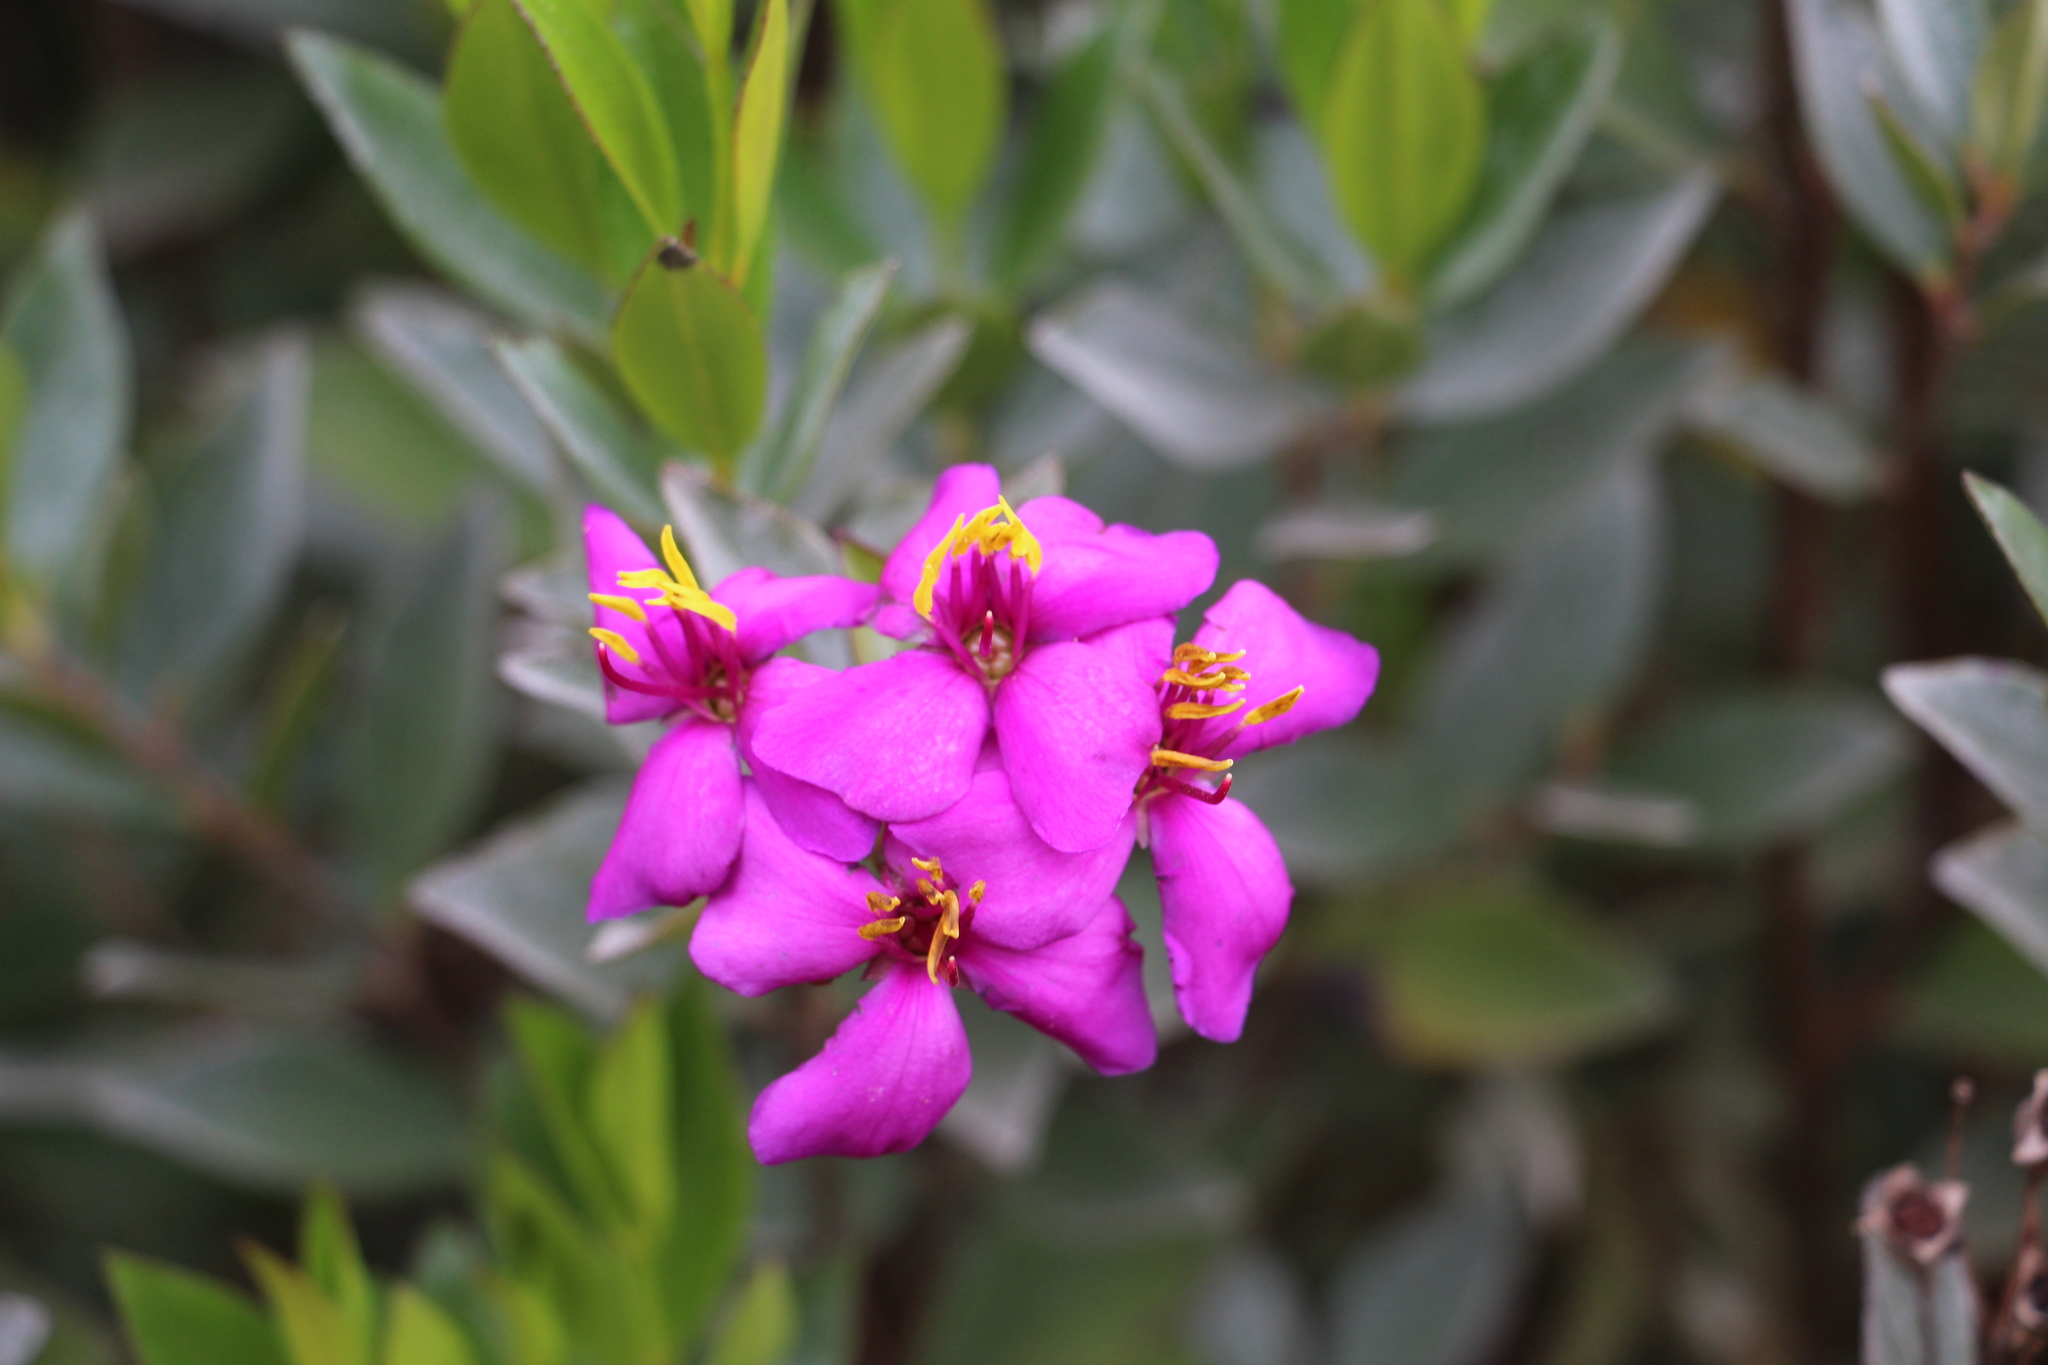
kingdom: Plantae
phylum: Tracheophyta
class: Magnoliopsida
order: Myrtales
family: Melastomataceae
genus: Bucquetia
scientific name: Bucquetia glutinosa
